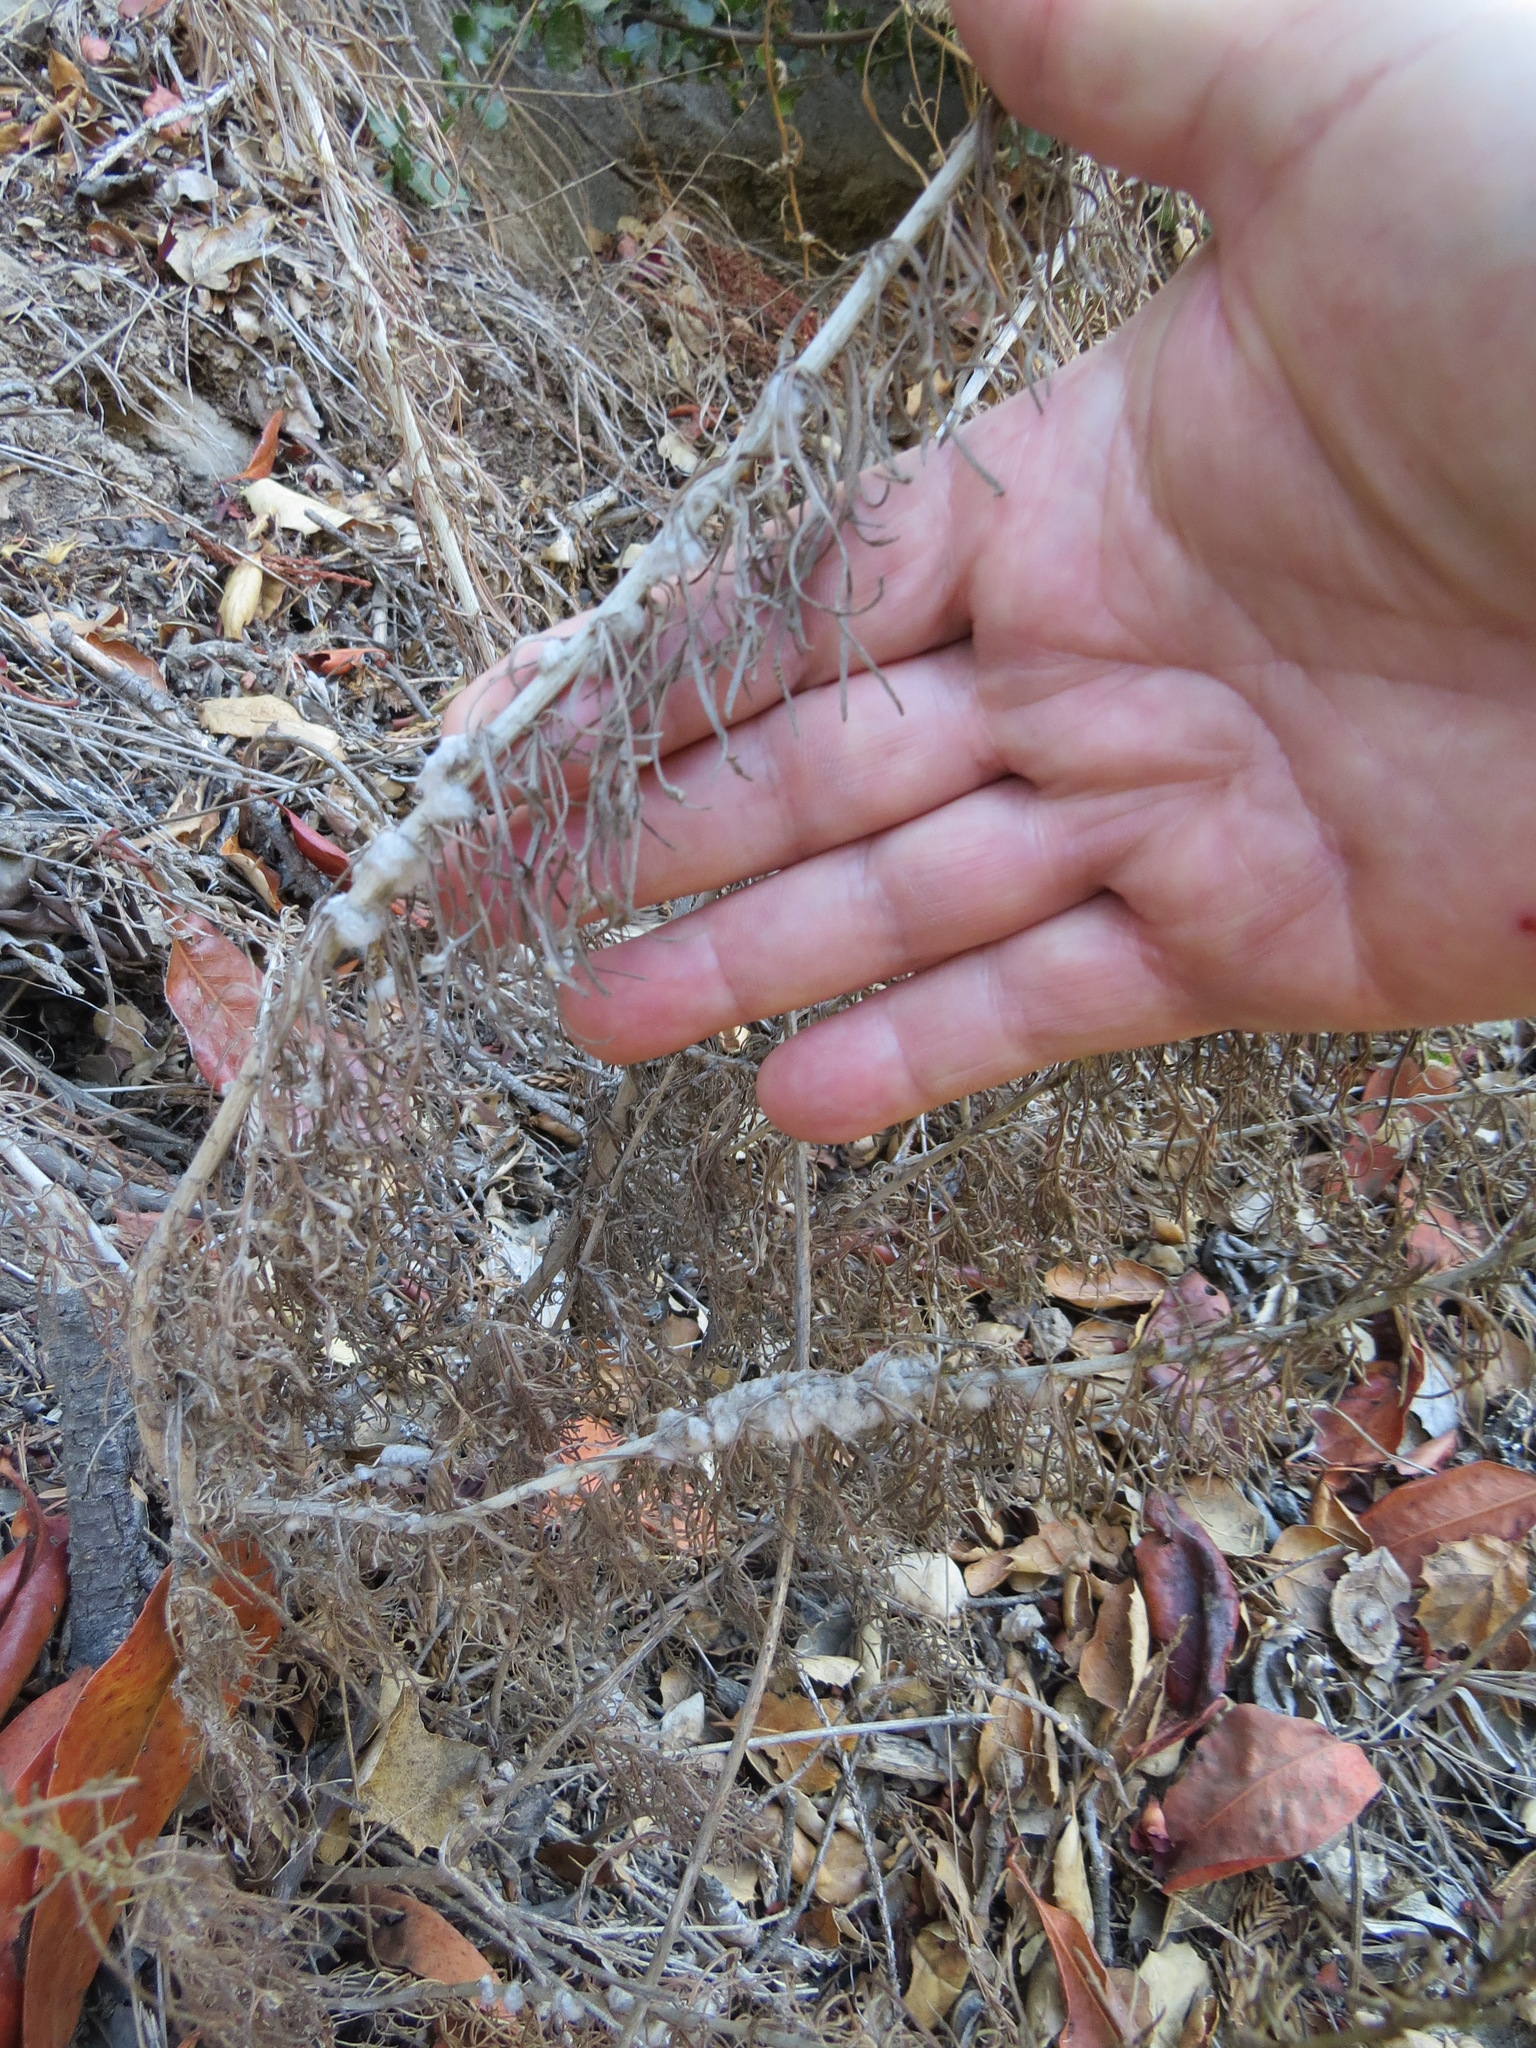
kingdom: Animalia
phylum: Arthropoda
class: Arachnida
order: Trombidiformes
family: Eriophyidae
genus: Aceria
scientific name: Aceria
